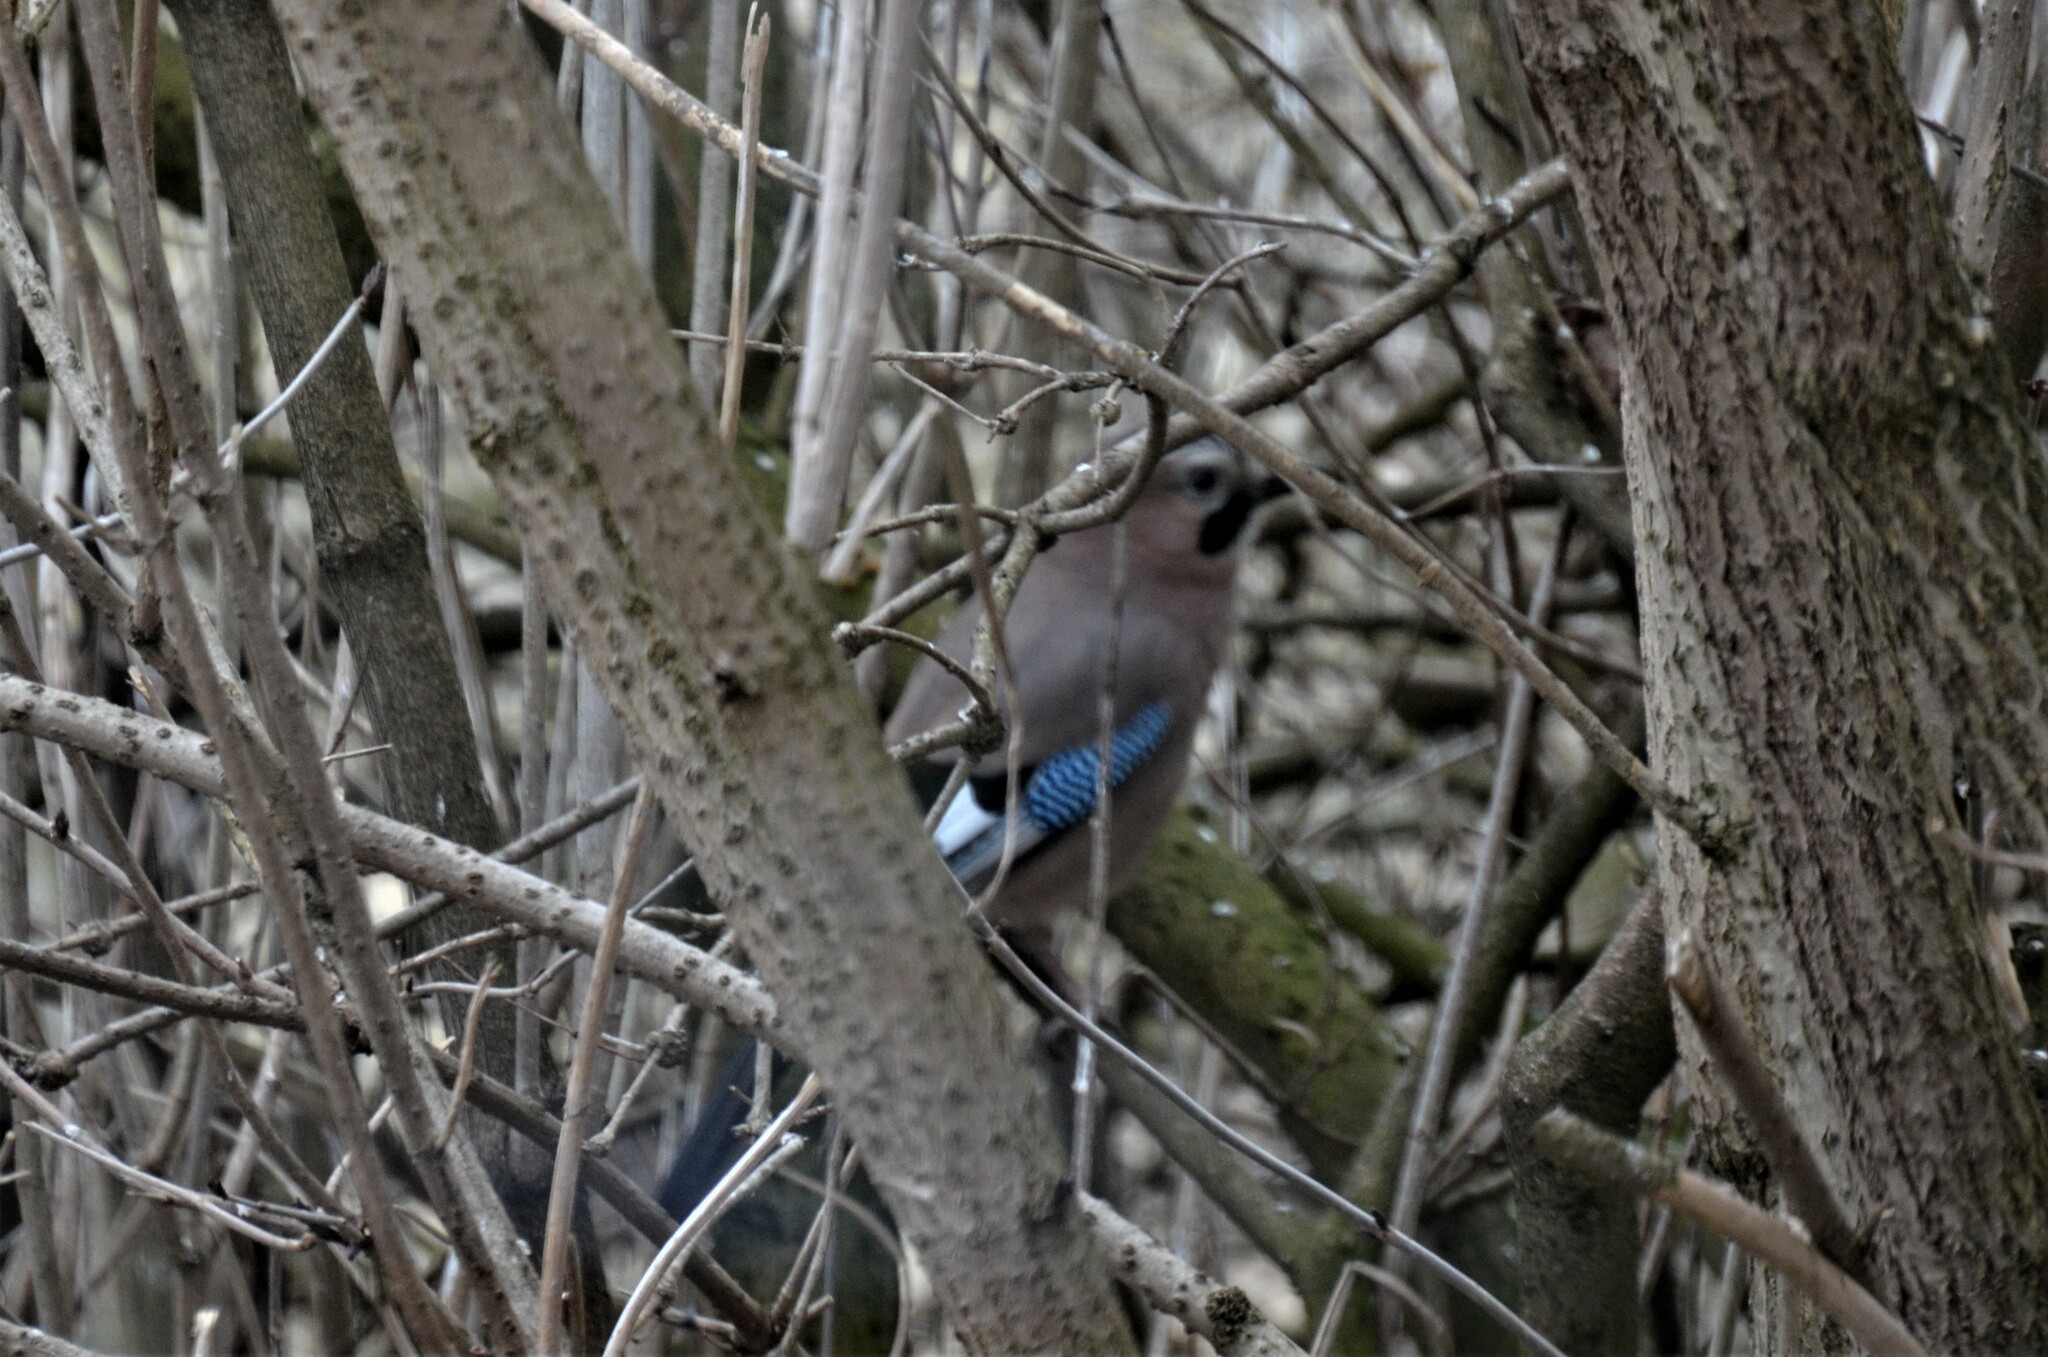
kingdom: Animalia
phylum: Chordata
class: Aves
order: Passeriformes
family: Corvidae
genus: Garrulus
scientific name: Garrulus glandarius
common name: Eurasian jay
